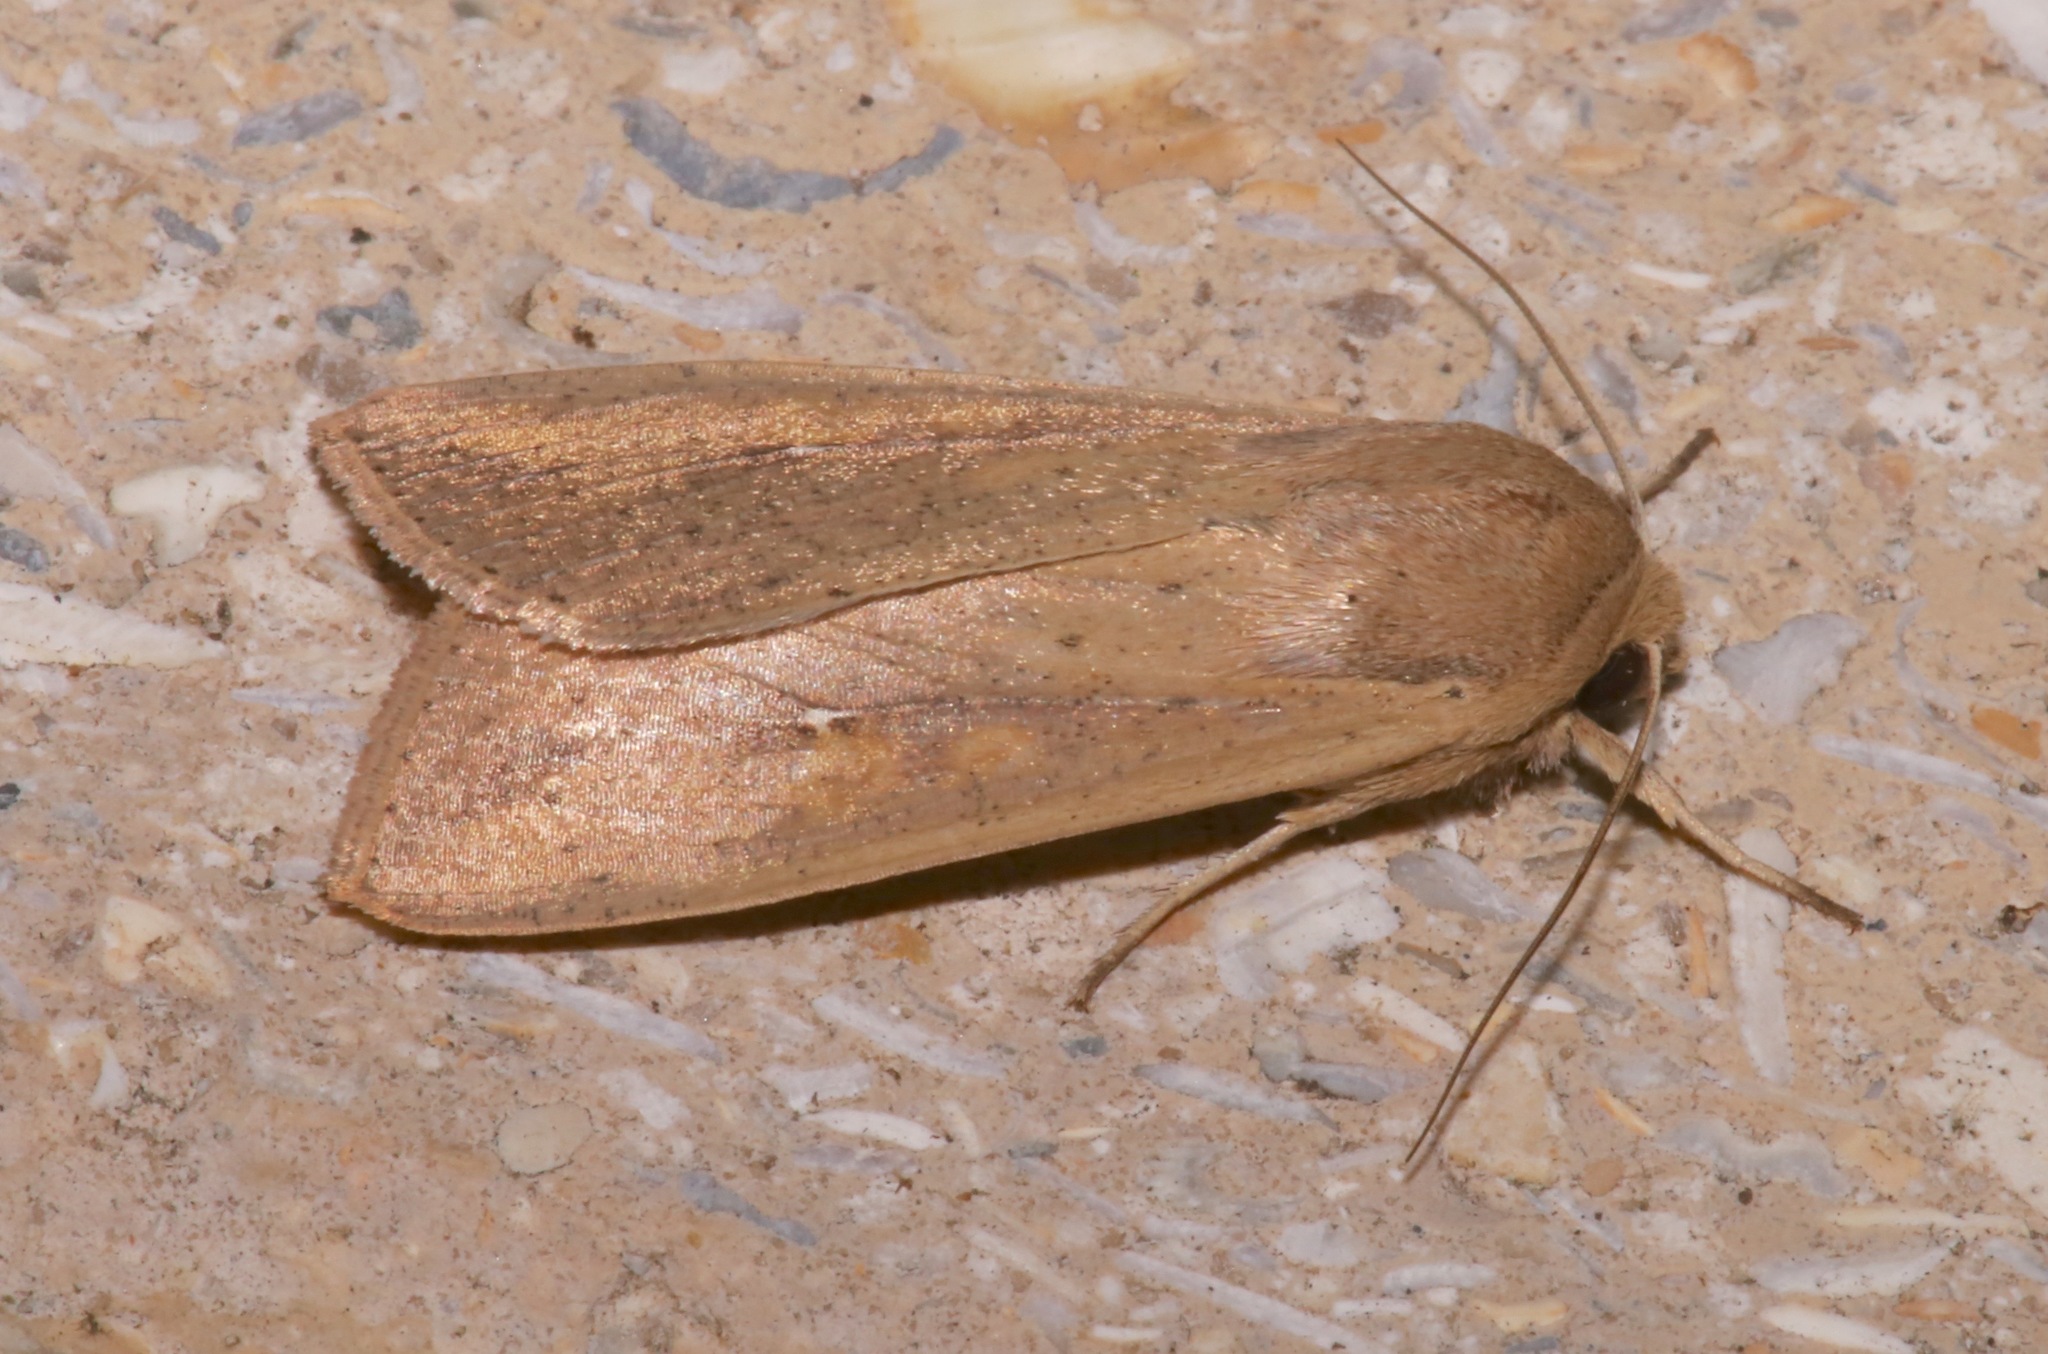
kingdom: Animalia
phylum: Arthropoda
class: Insecta
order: Lepidoptera
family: Noctuidae
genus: Mythimna
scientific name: Mythimna unipuncta
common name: White-speck
